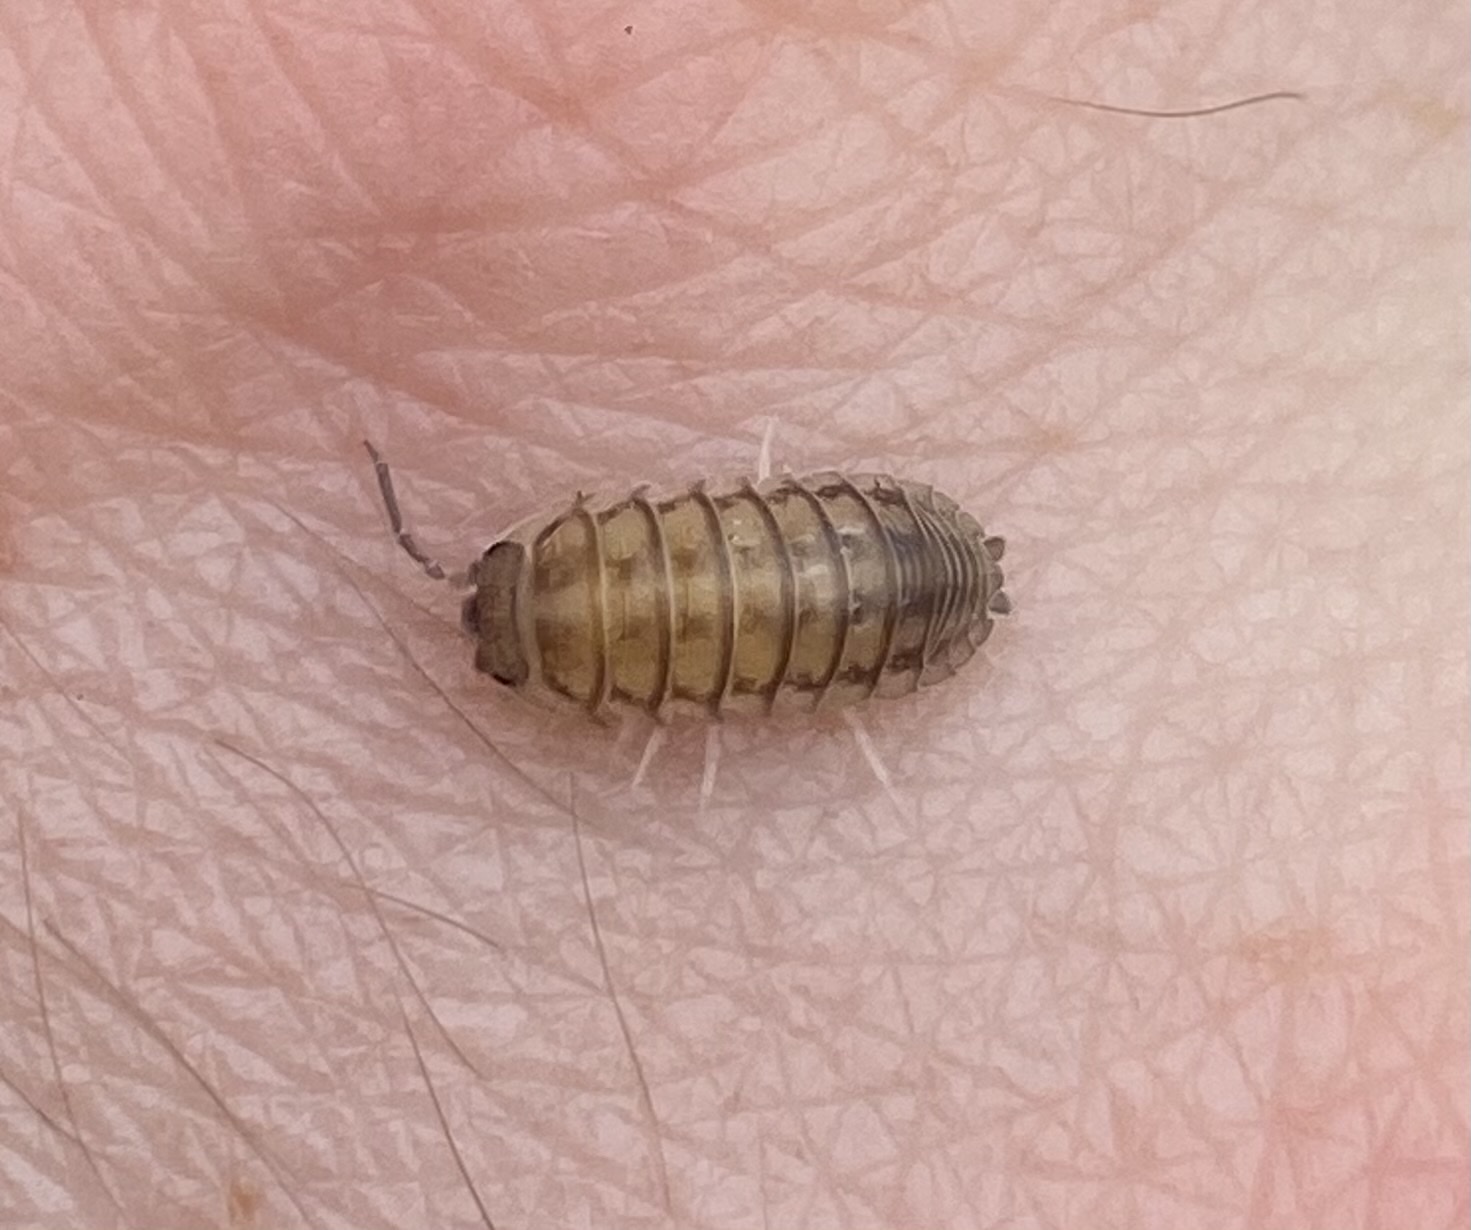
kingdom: Animalia
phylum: Arthropoda
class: Malacostraca
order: Isopoda
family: Armadillidiidae
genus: Armadillidium
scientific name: Armadillidium nasatum
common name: Isopod
